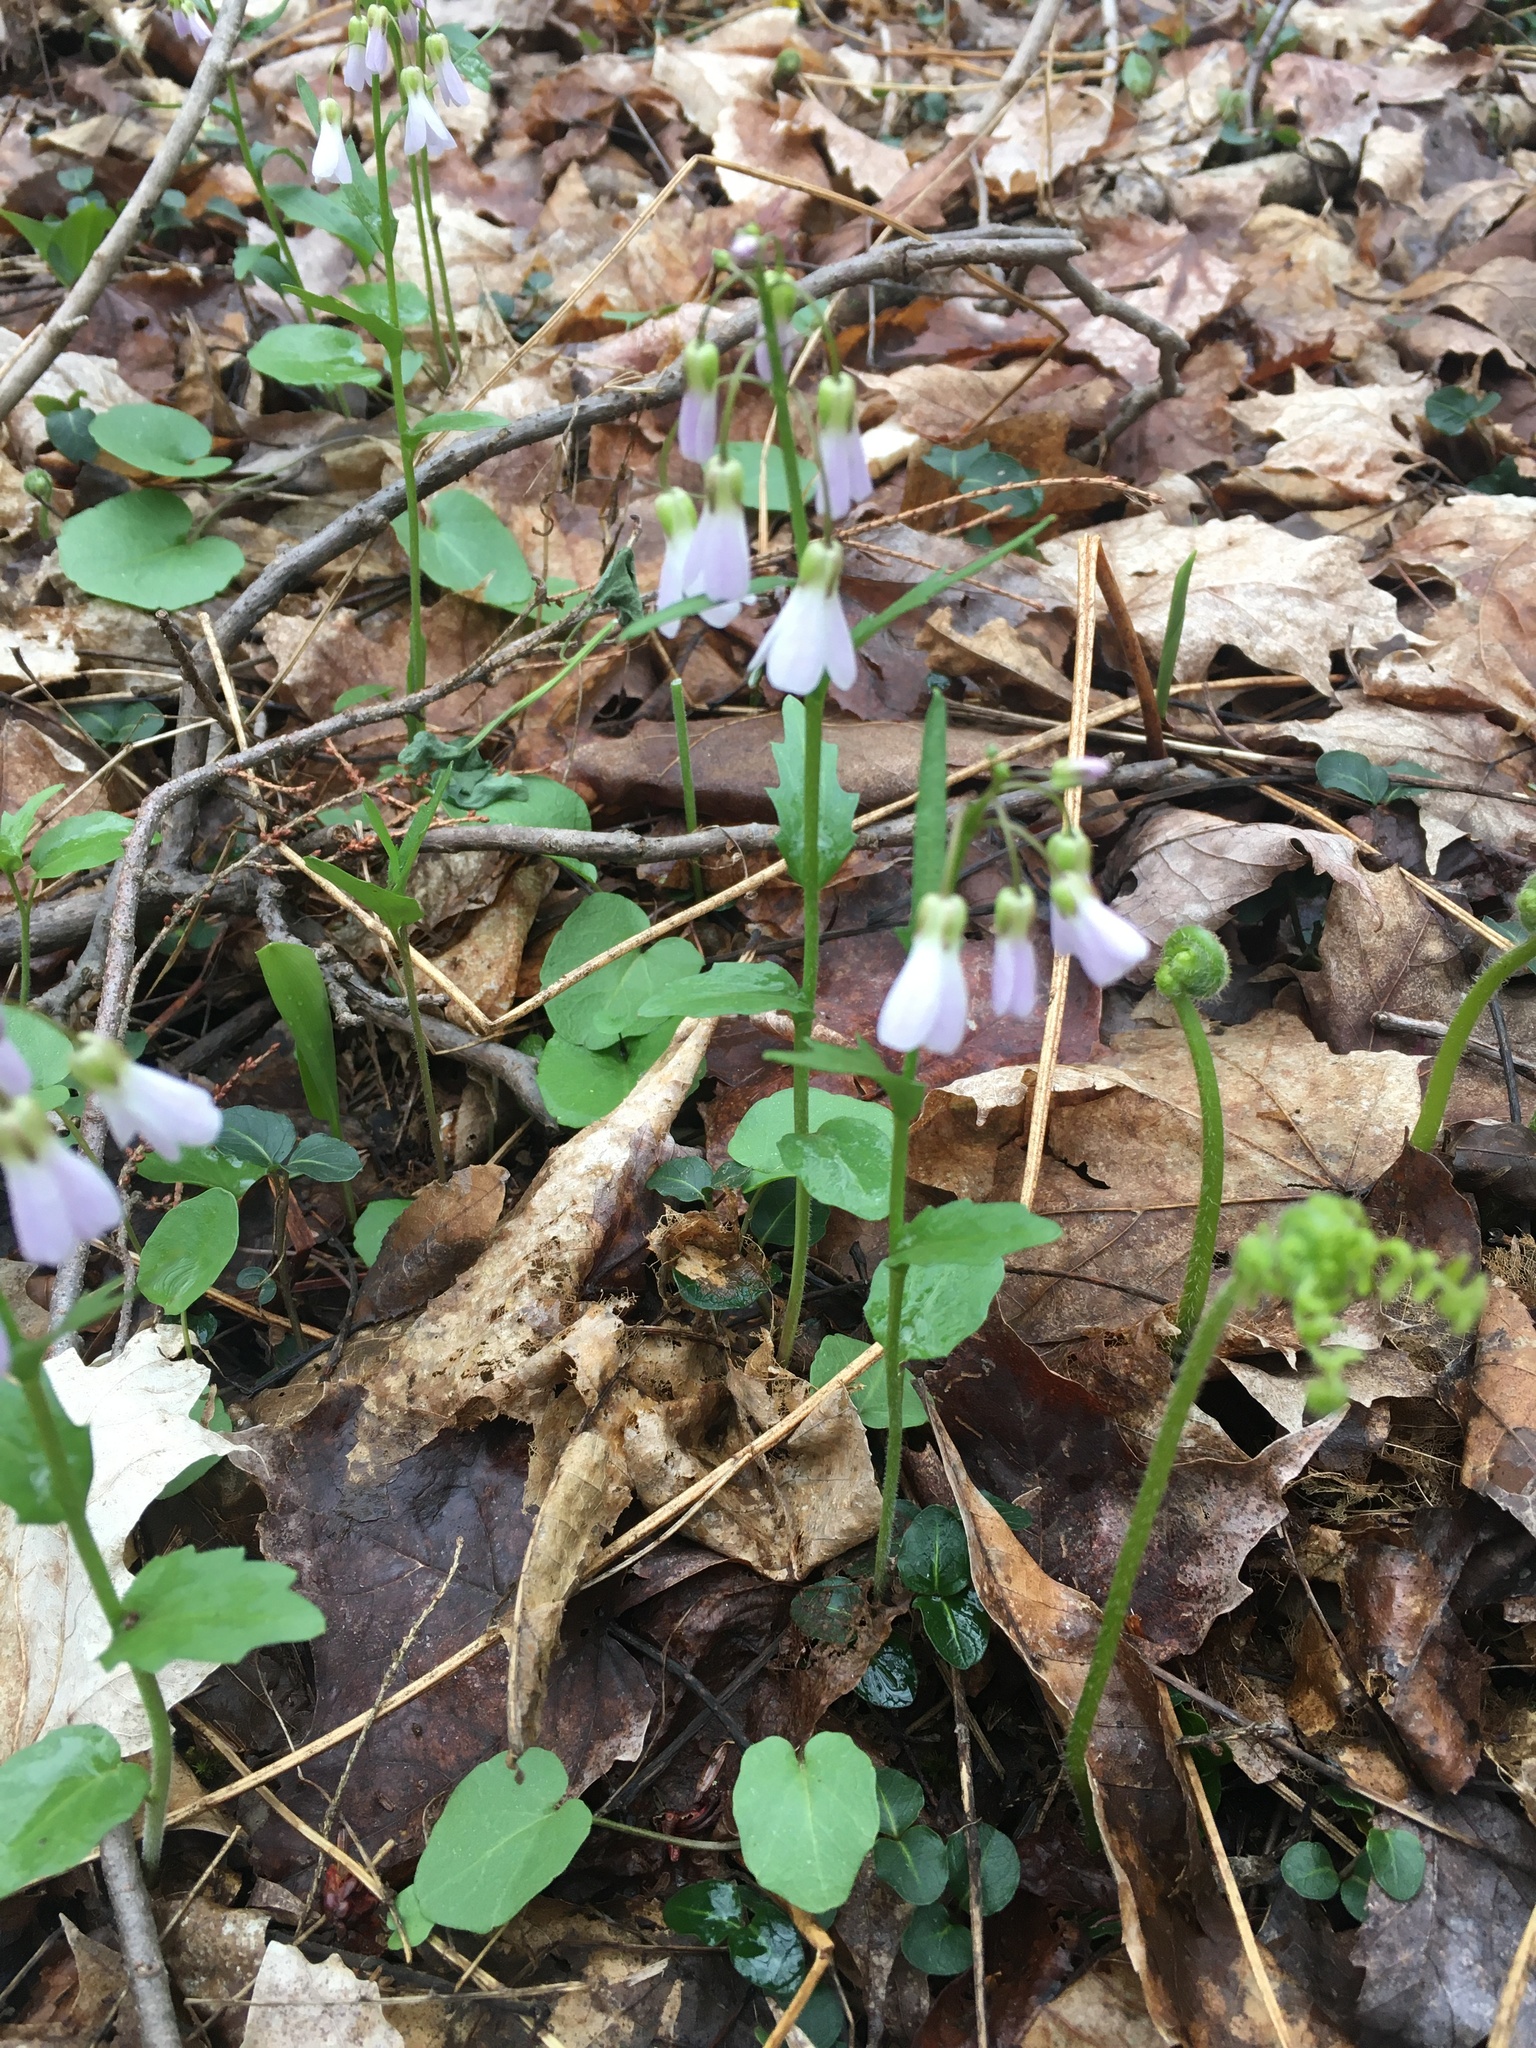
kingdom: Plantae
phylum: Tracheophyta
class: Magnoliopsida
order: Brassicales
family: Brassicaceae
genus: Cardamine
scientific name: Cardamine douglassii
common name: Purple cress
